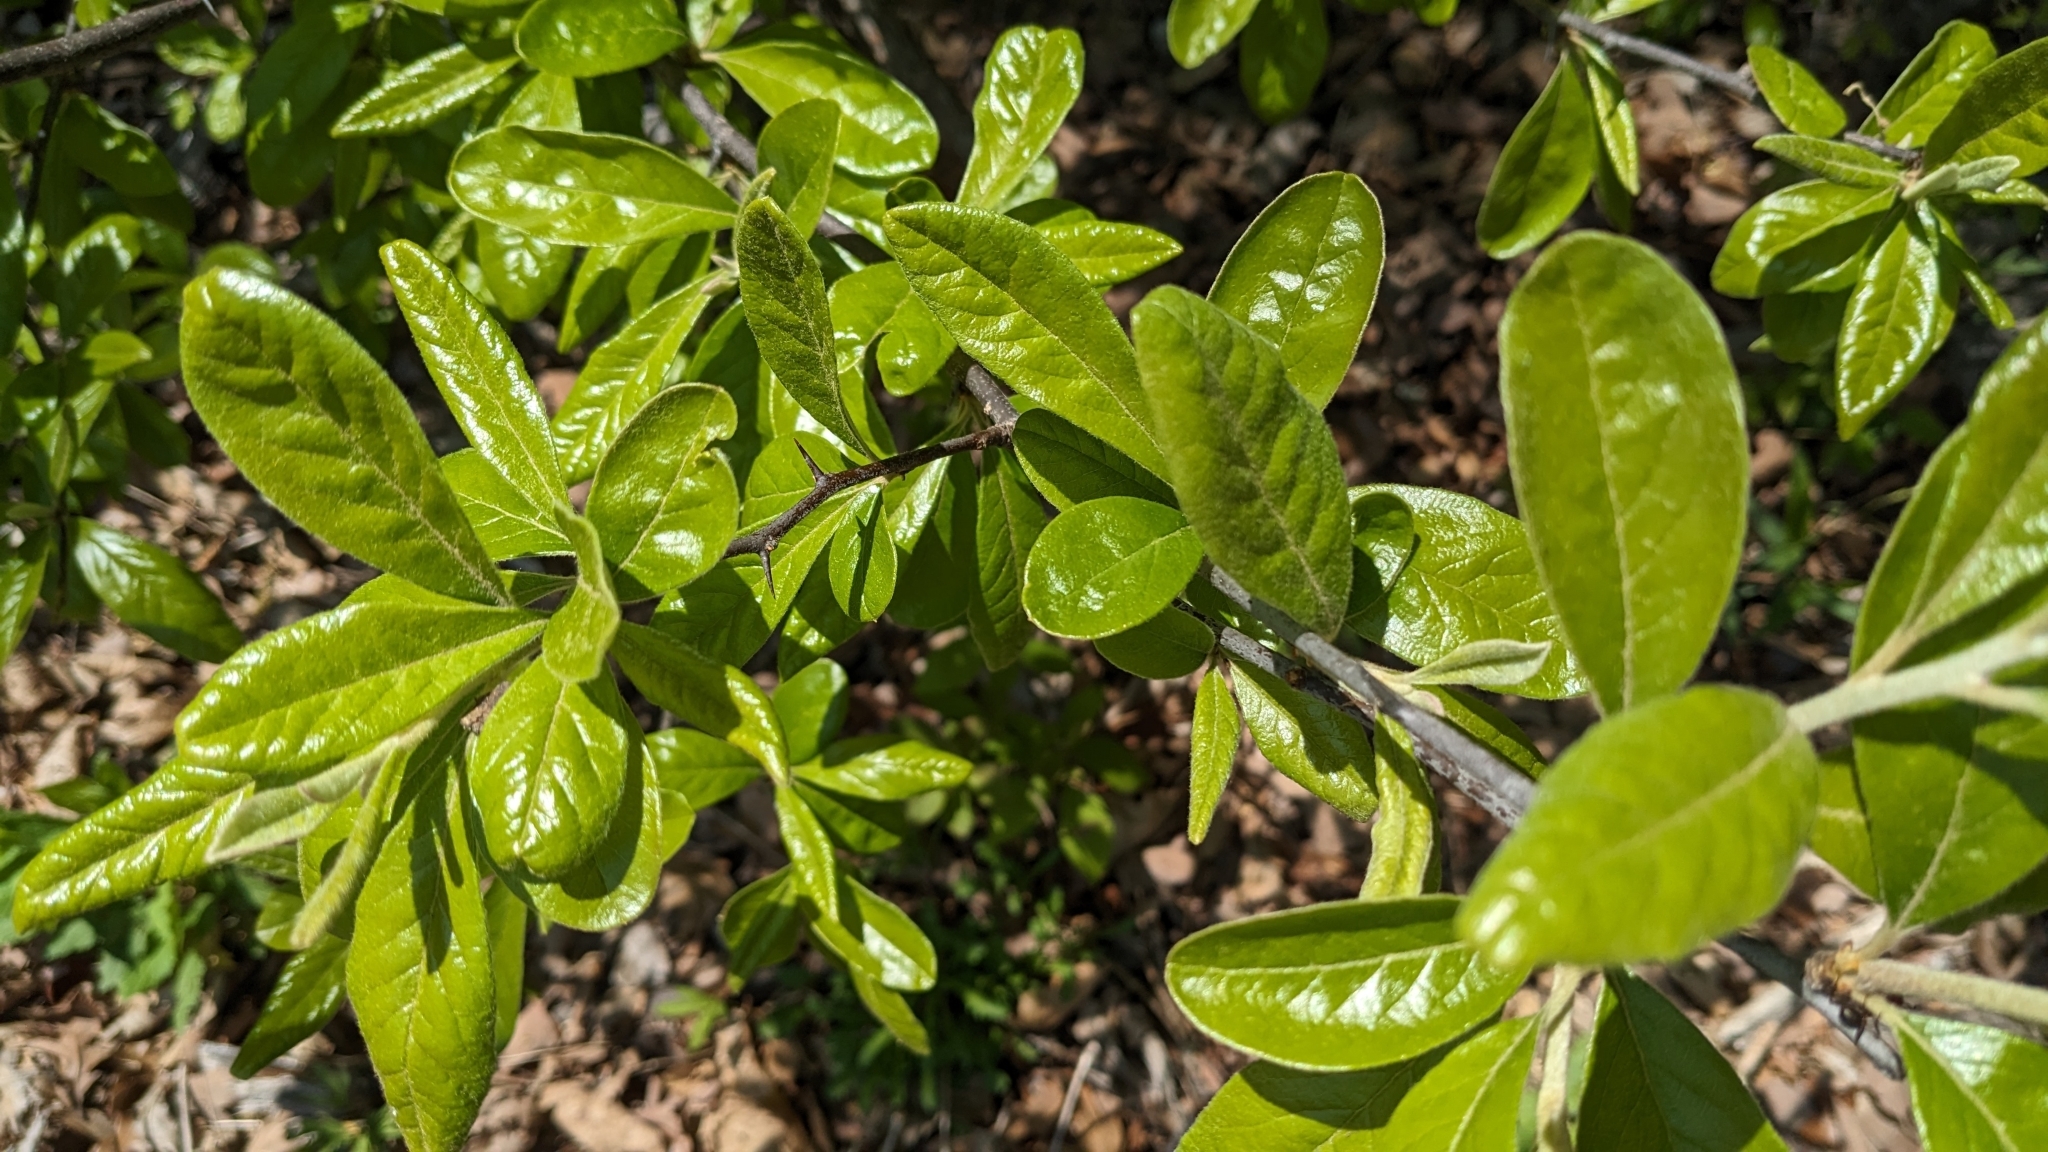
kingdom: Plantae
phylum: Tracheophyta
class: Magnoliopsida
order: Ericales
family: Sapotaceae
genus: Sideroxylon
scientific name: Sideroxylon lanuginosum
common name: Chittamwood
